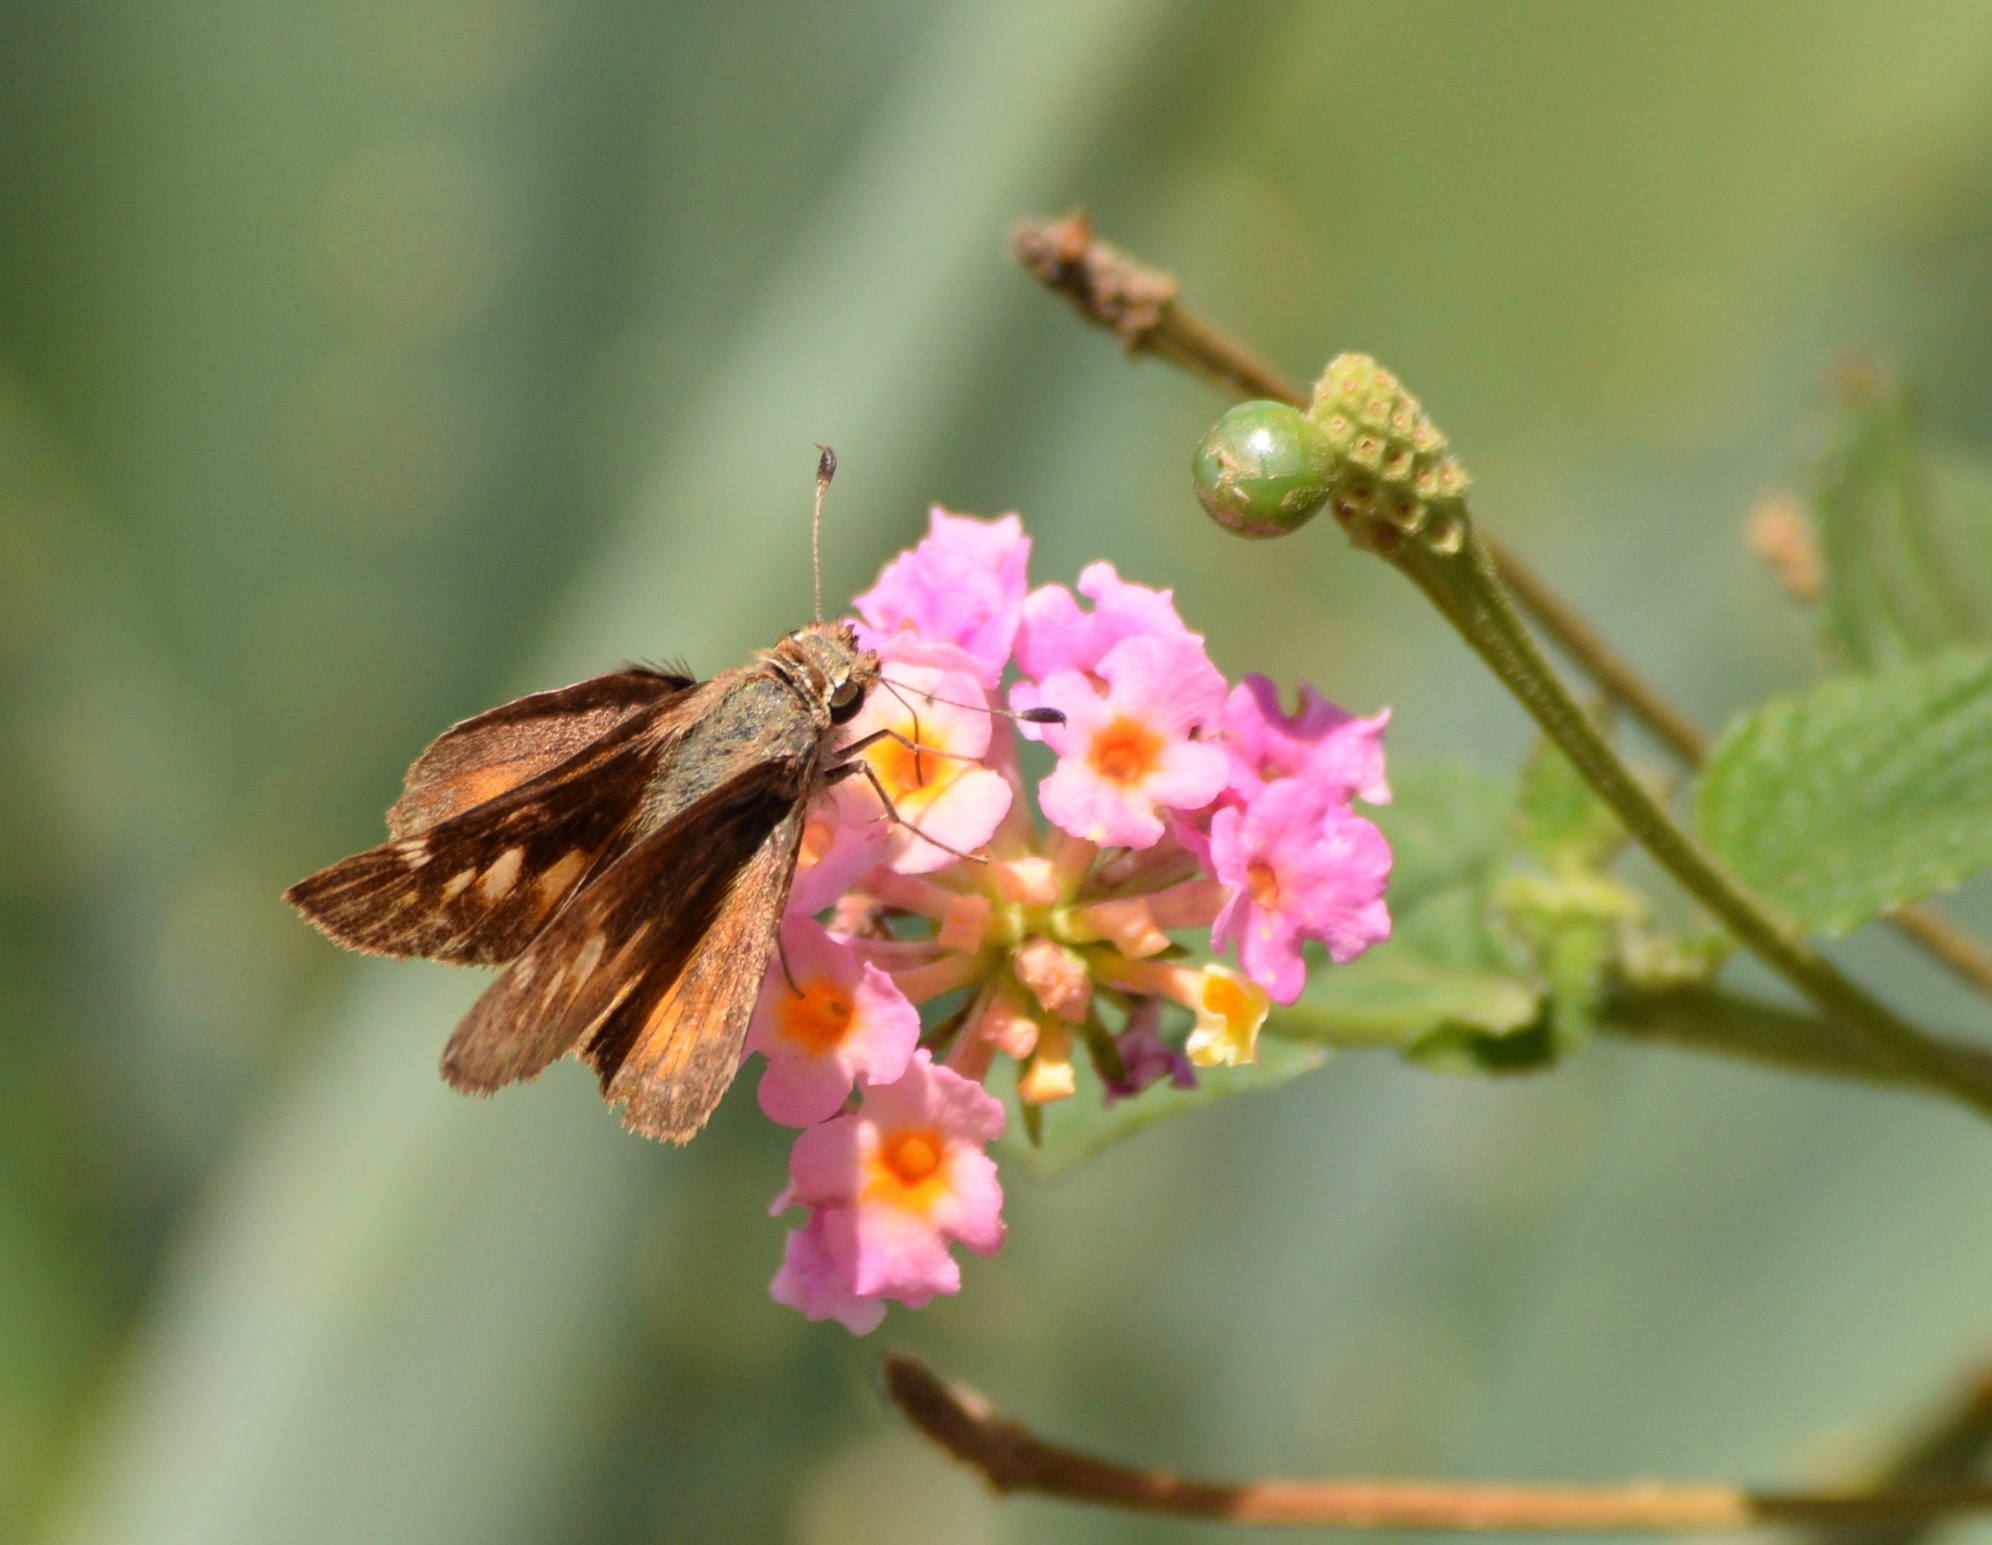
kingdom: Animalia
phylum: Arthropoda
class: Insecta
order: Lepidoptera
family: Hesperiidae
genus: Lon
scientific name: Lon melane
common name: Umber skipper
